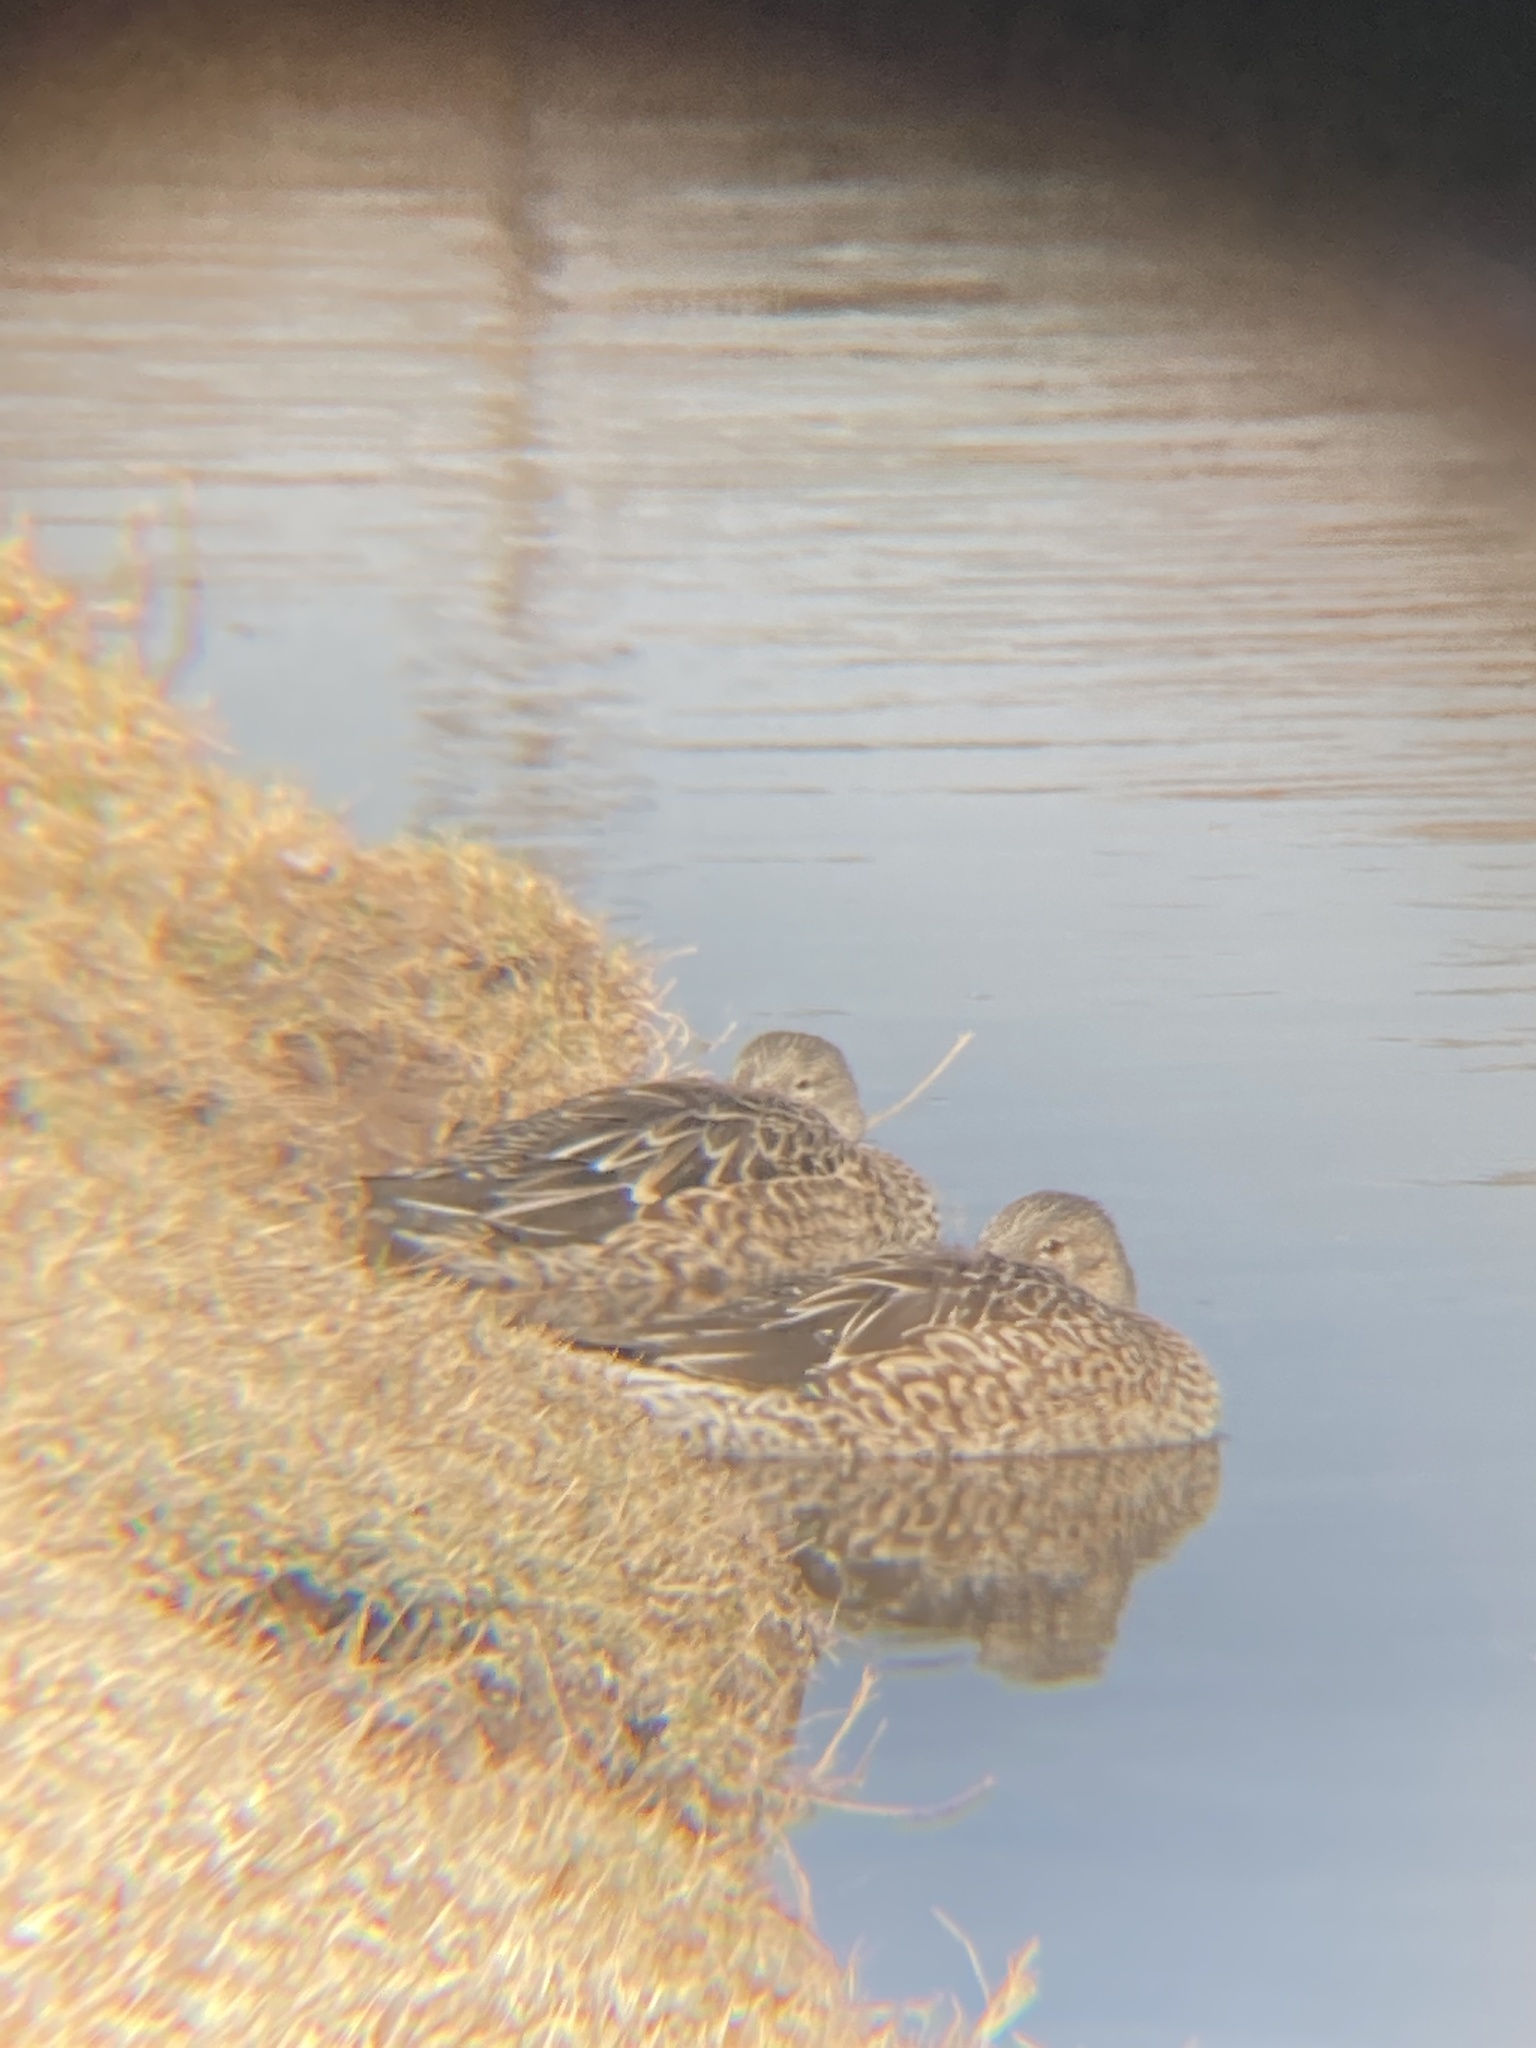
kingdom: Animalia
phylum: Chordata
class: Aves
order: Anseriformes
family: Anatidae
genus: Spatula
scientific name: Spatula clypeata
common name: Northern shoveler
